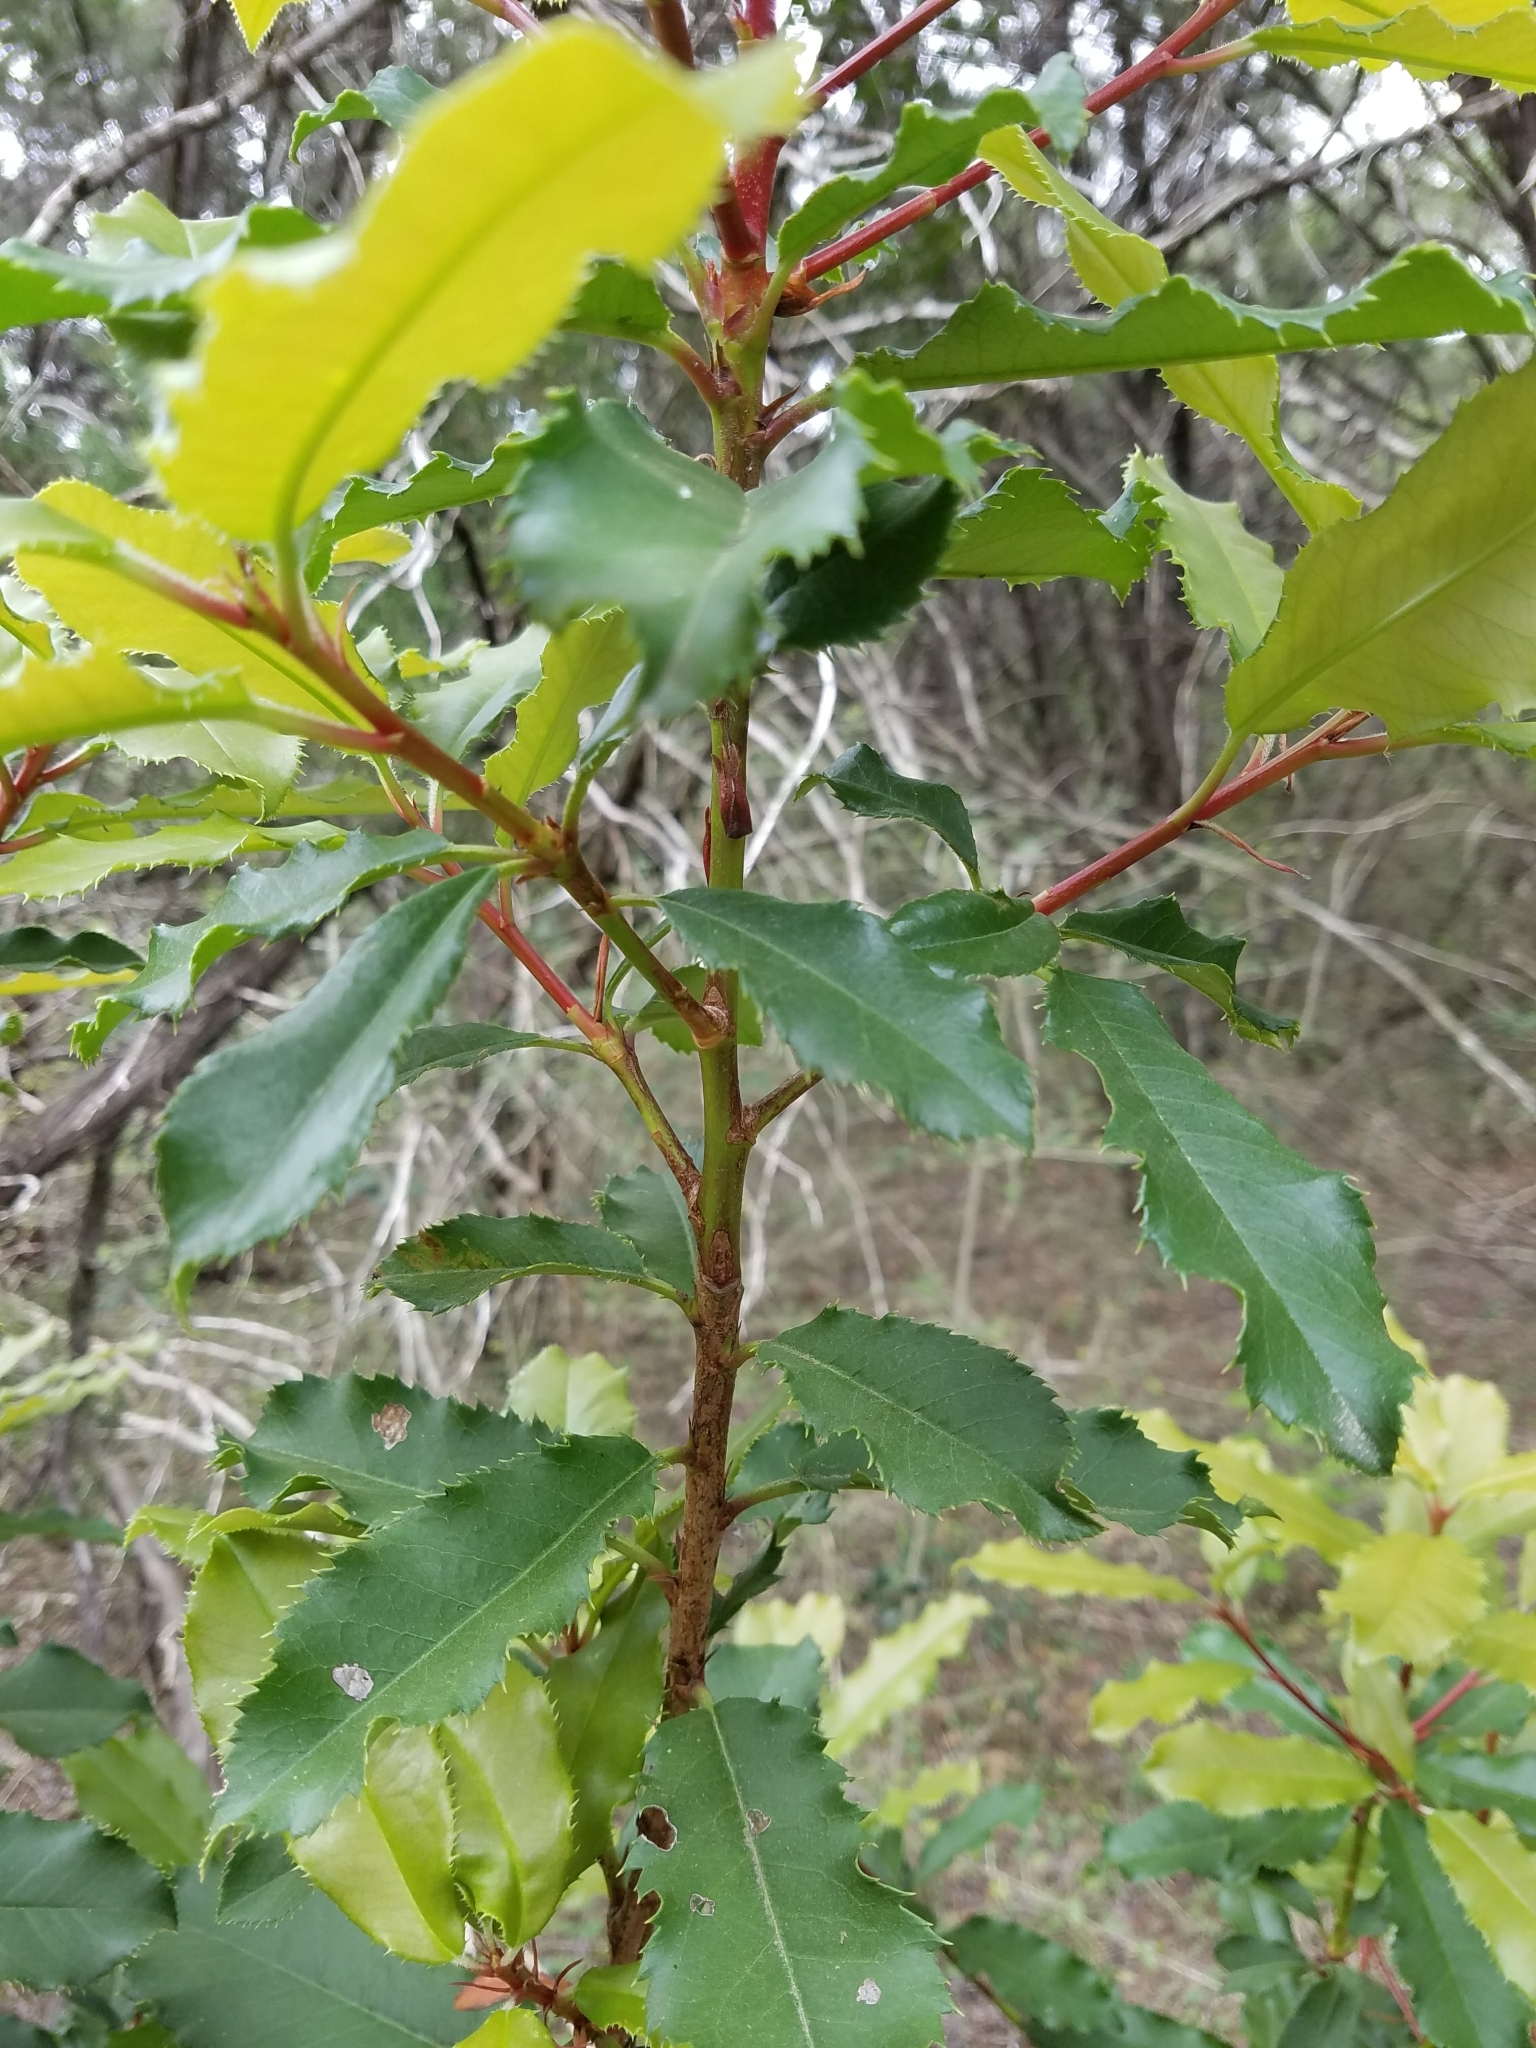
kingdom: Plantae
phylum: Tracheophyta
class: Magnoliopsida
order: Rosales
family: Rosaceae
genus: Photinia
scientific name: Photinia serratifolia
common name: Taiwanese photinia
